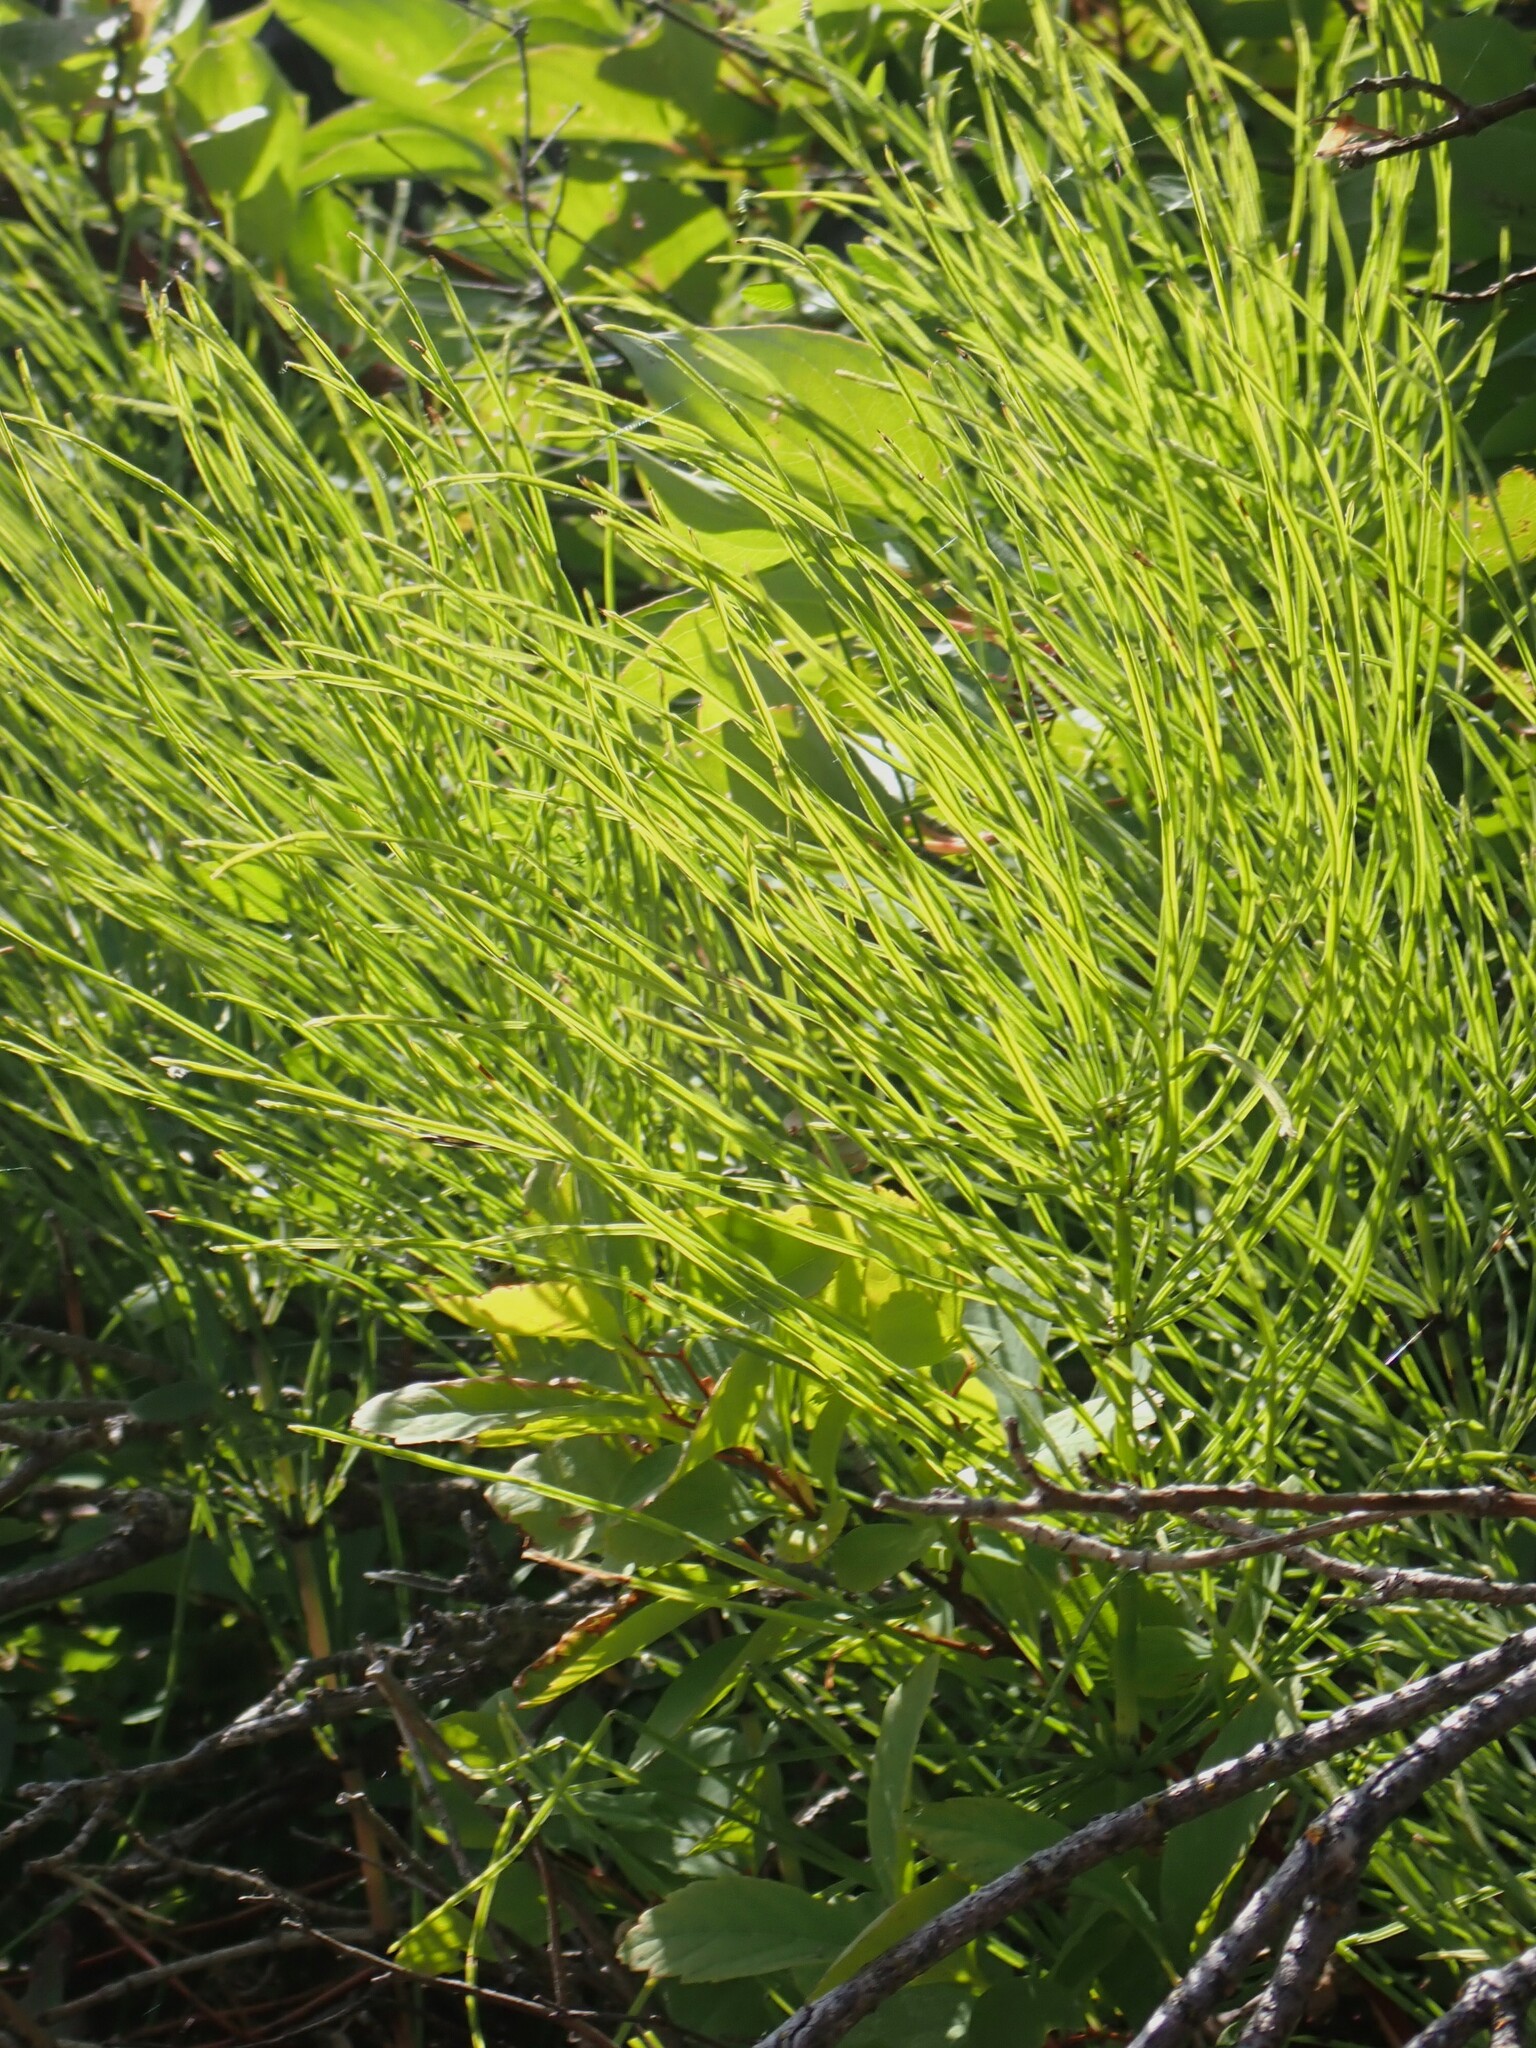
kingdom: Plantae
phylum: Tracheophyta
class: Polypodiopsida
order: Equisetales
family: Equisetaceae
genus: Equisetum
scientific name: Equisetum arvense
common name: Field horsetail
